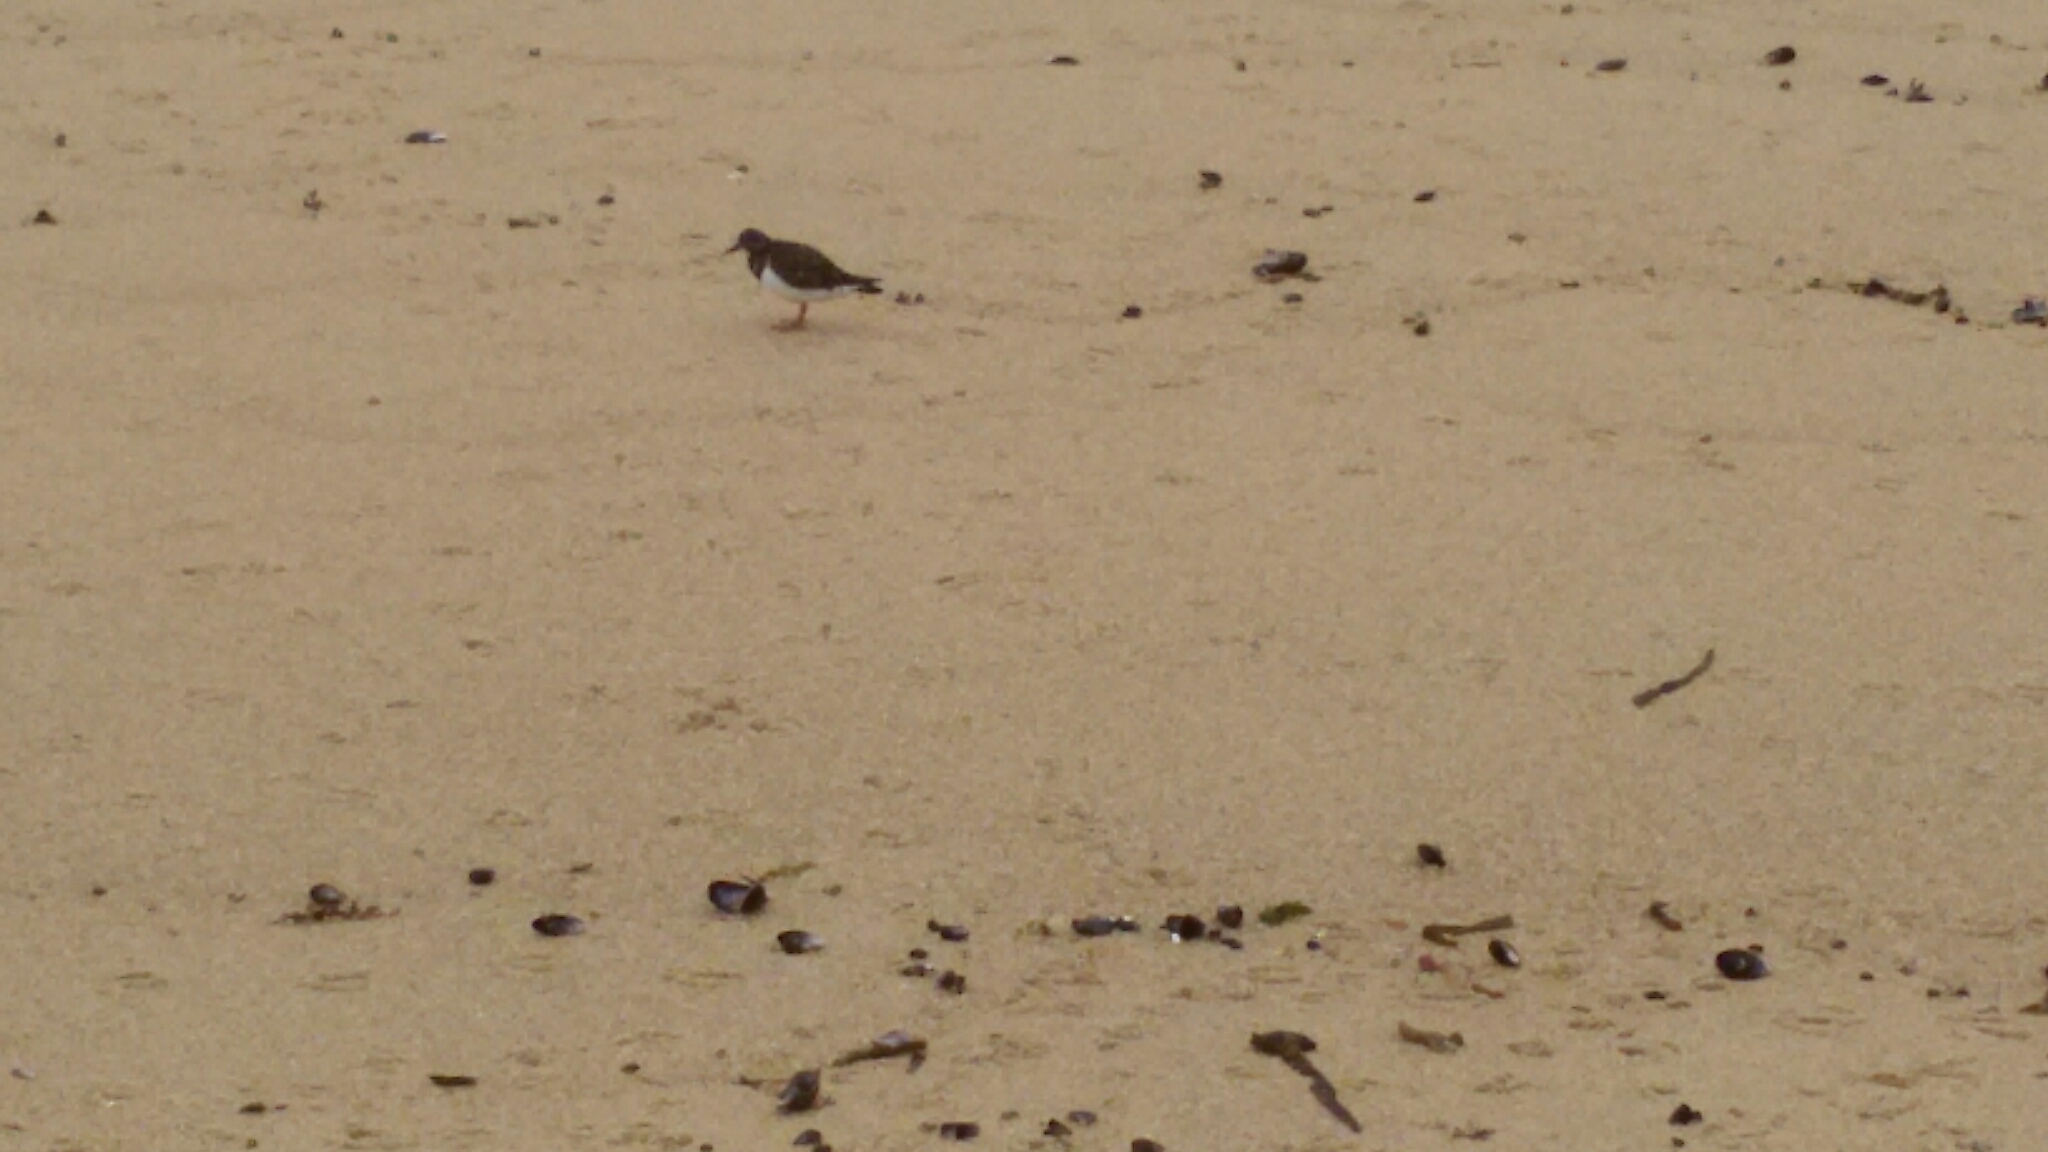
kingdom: Animalia
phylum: Chordata
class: Aves
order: Charadriiformes
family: Scolopacidae
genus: Arenaria
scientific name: Arenaria interpres
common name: Ruddy turnstone
